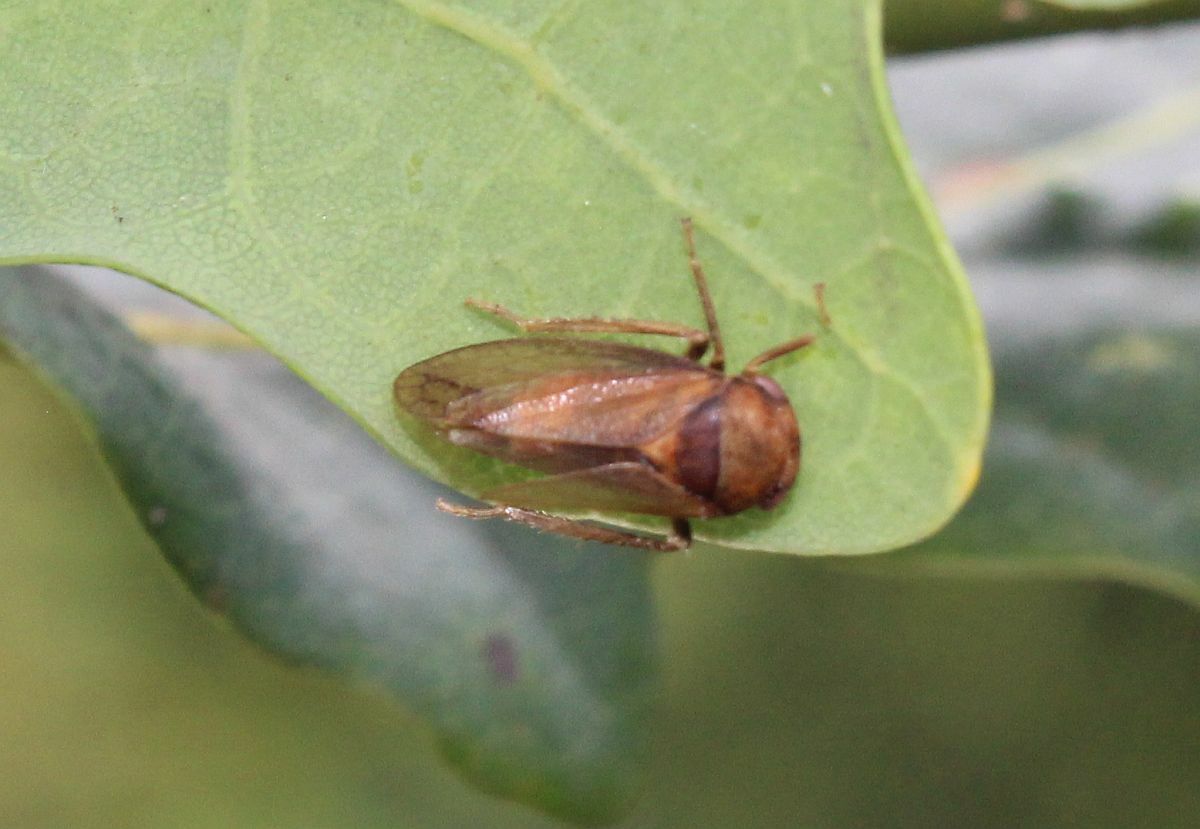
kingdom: Animalia
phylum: Arthropoda
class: Insecta
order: Hemiptera
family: Cicadellidae
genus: Iassus
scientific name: Iassus lanio
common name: Leafhopper
